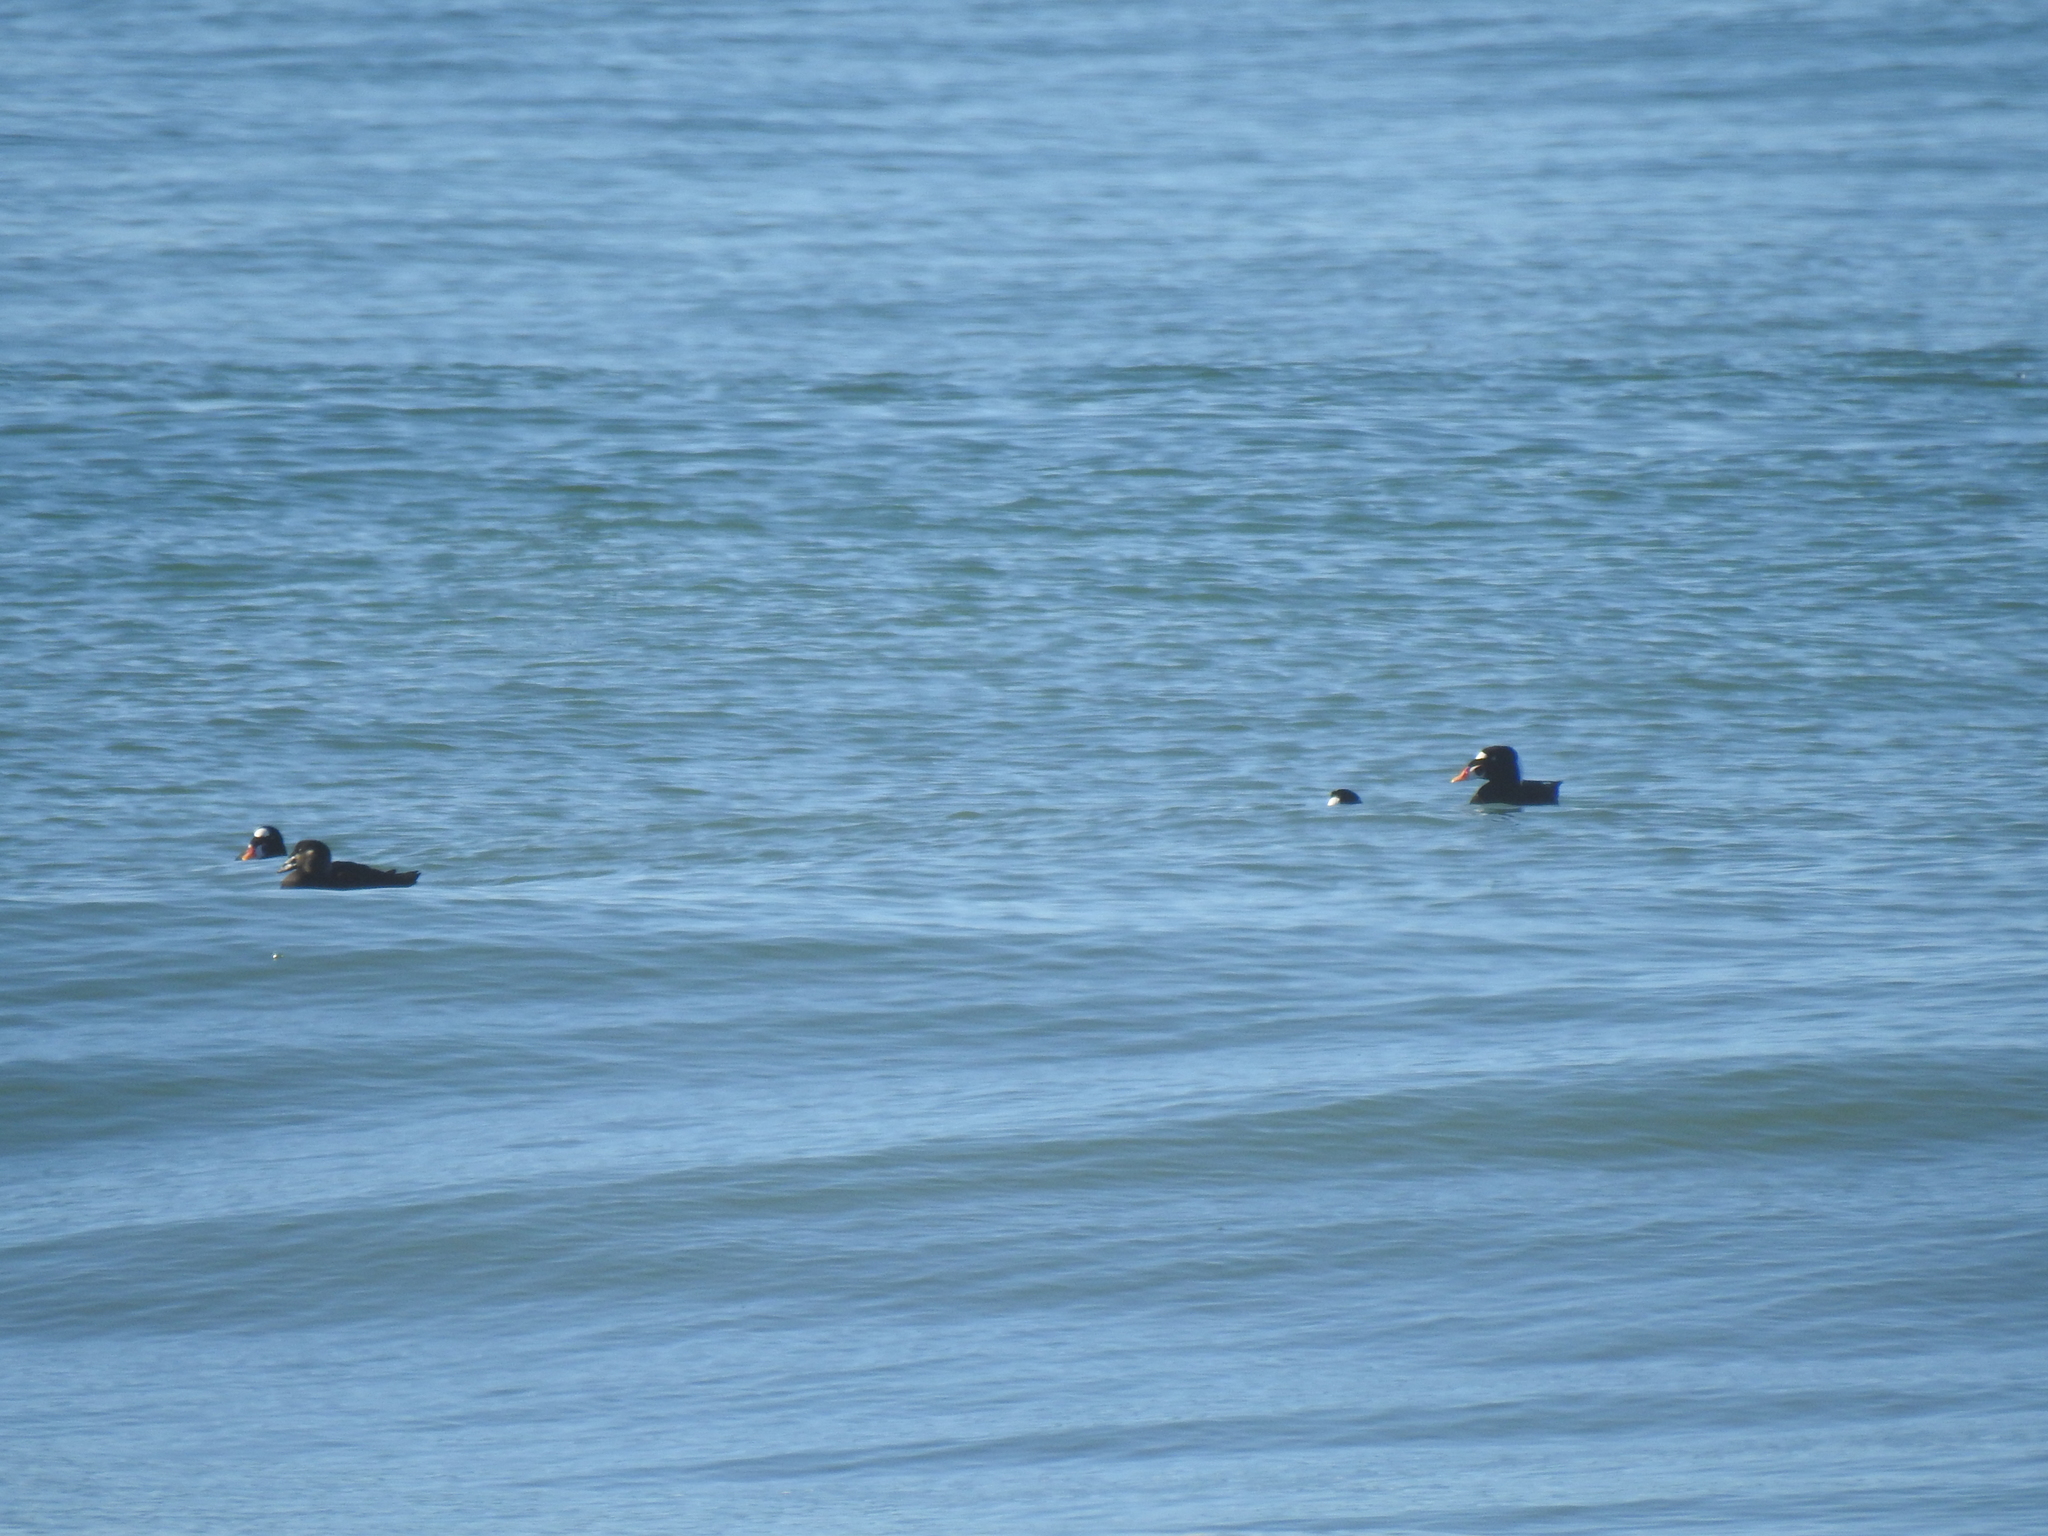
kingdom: Animalia
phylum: Chordata
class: Aves
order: Anseriformes
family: Anatidae
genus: Melanitta
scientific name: Melanitta perspicillata
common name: Surf scoter
